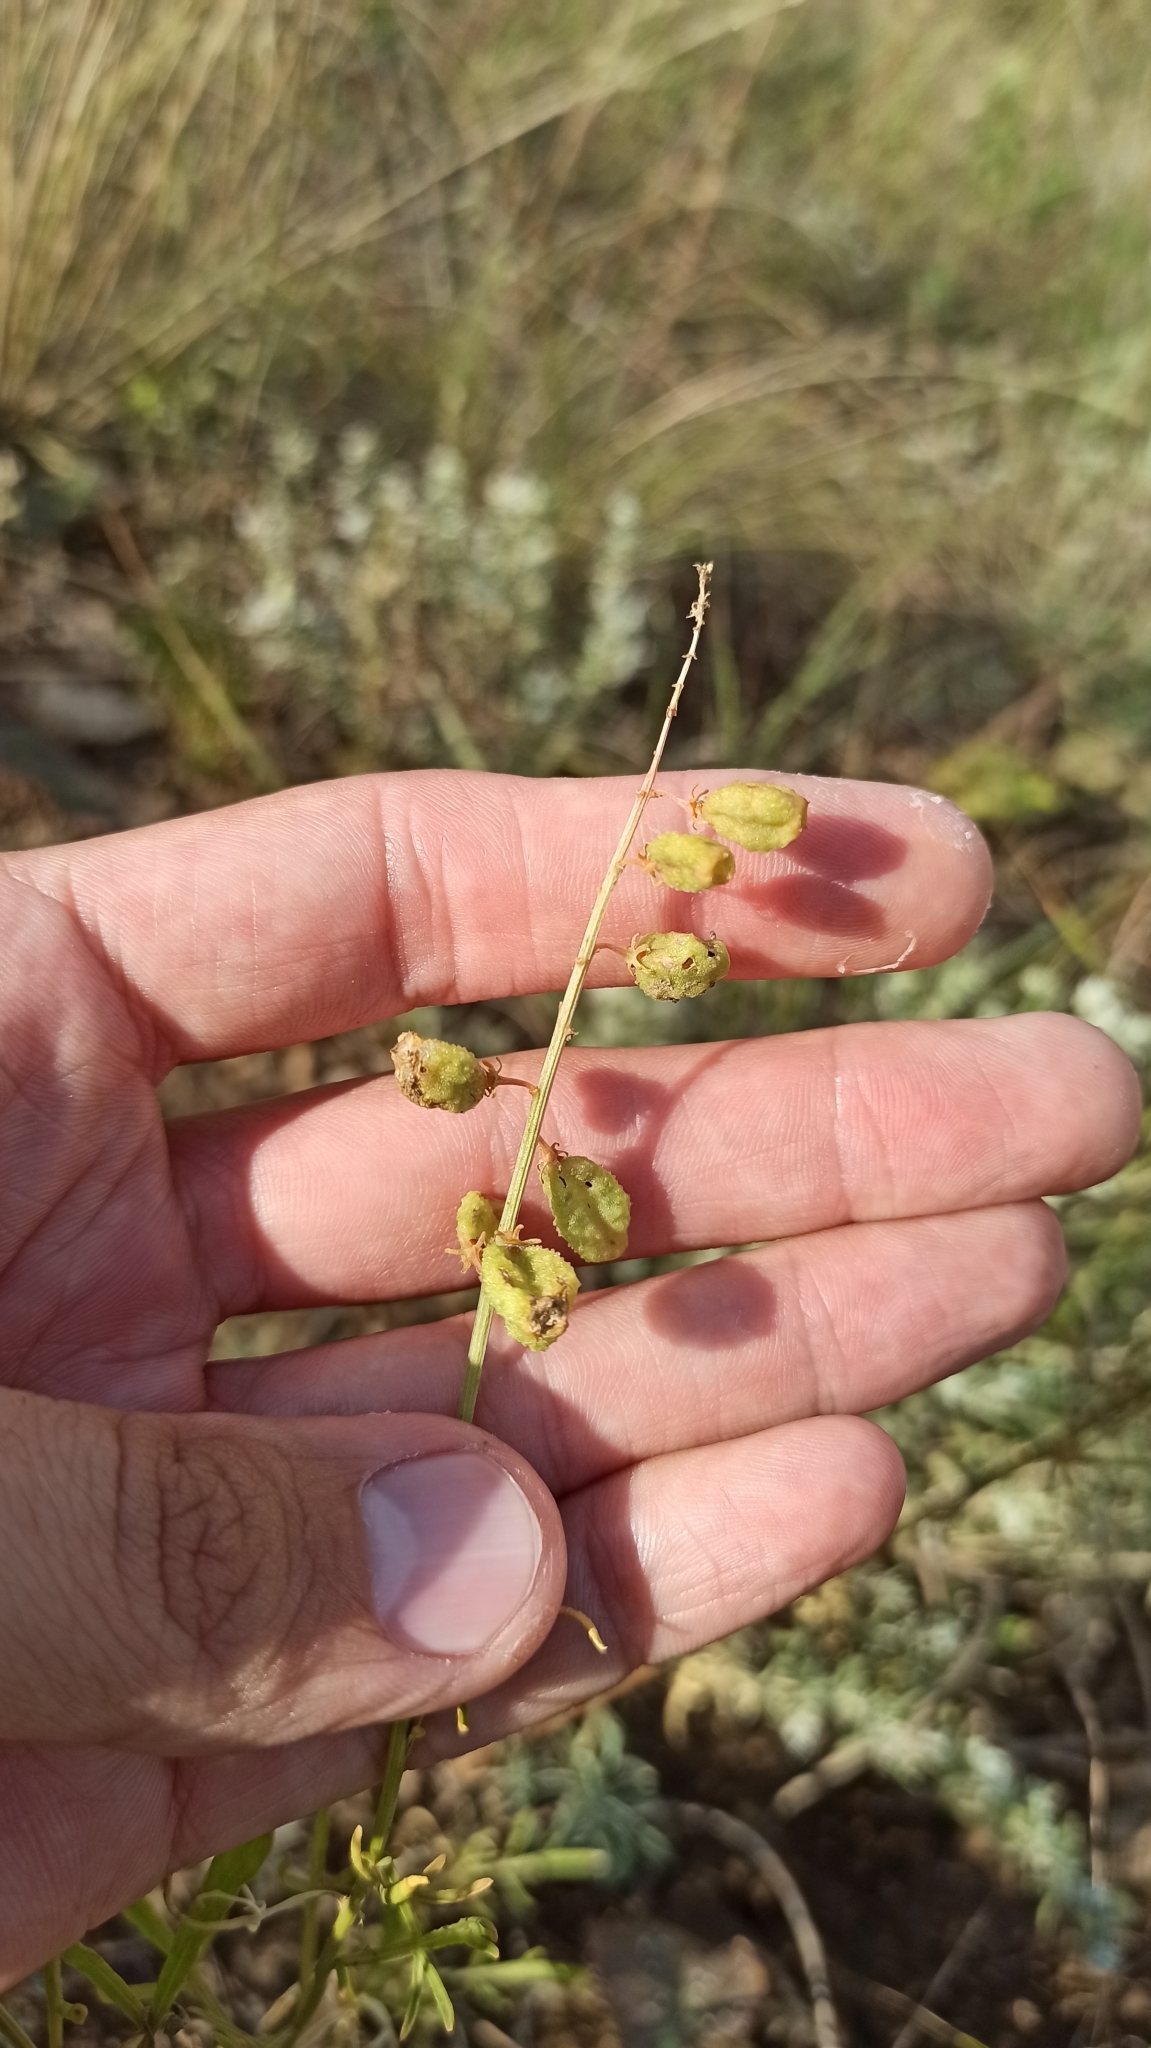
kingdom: Plantae
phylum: Tracheophyta
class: Magnoliopsida
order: Brassicales
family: Resedaceae
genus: Reseda
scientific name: Reseda lutea
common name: Wild mignonette
